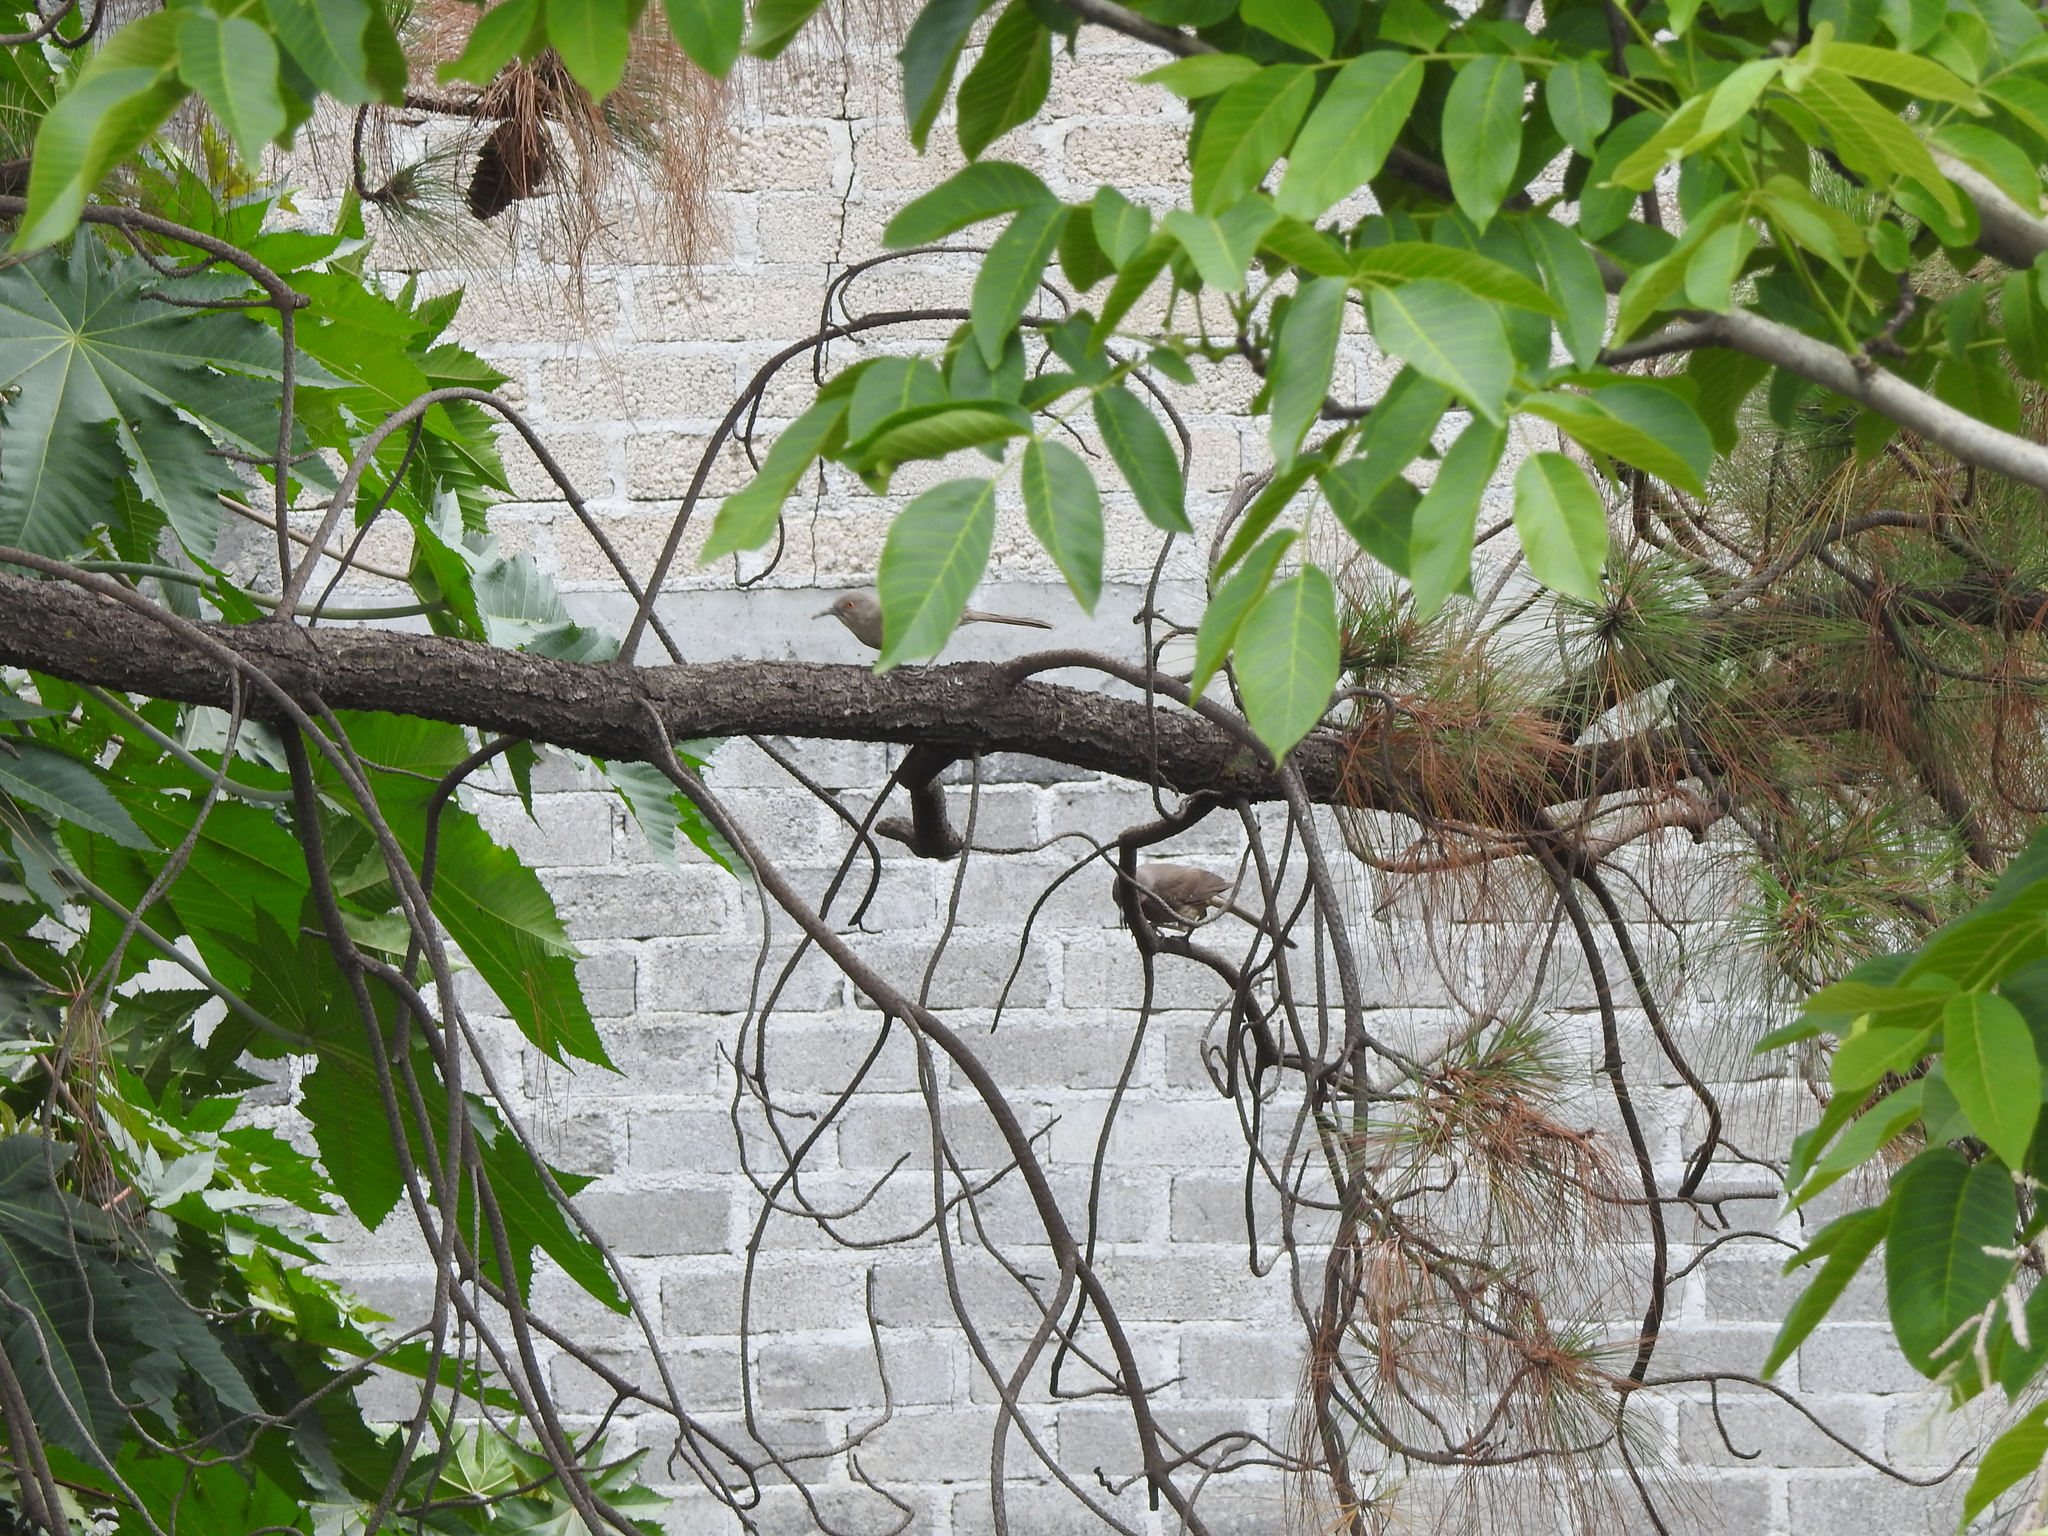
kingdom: Animalia
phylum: Chordata
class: Aves
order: Passeriformes
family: Mimidae
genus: Toxostoma
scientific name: Toxostoma curvirostre
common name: Curve-billed thrasher
